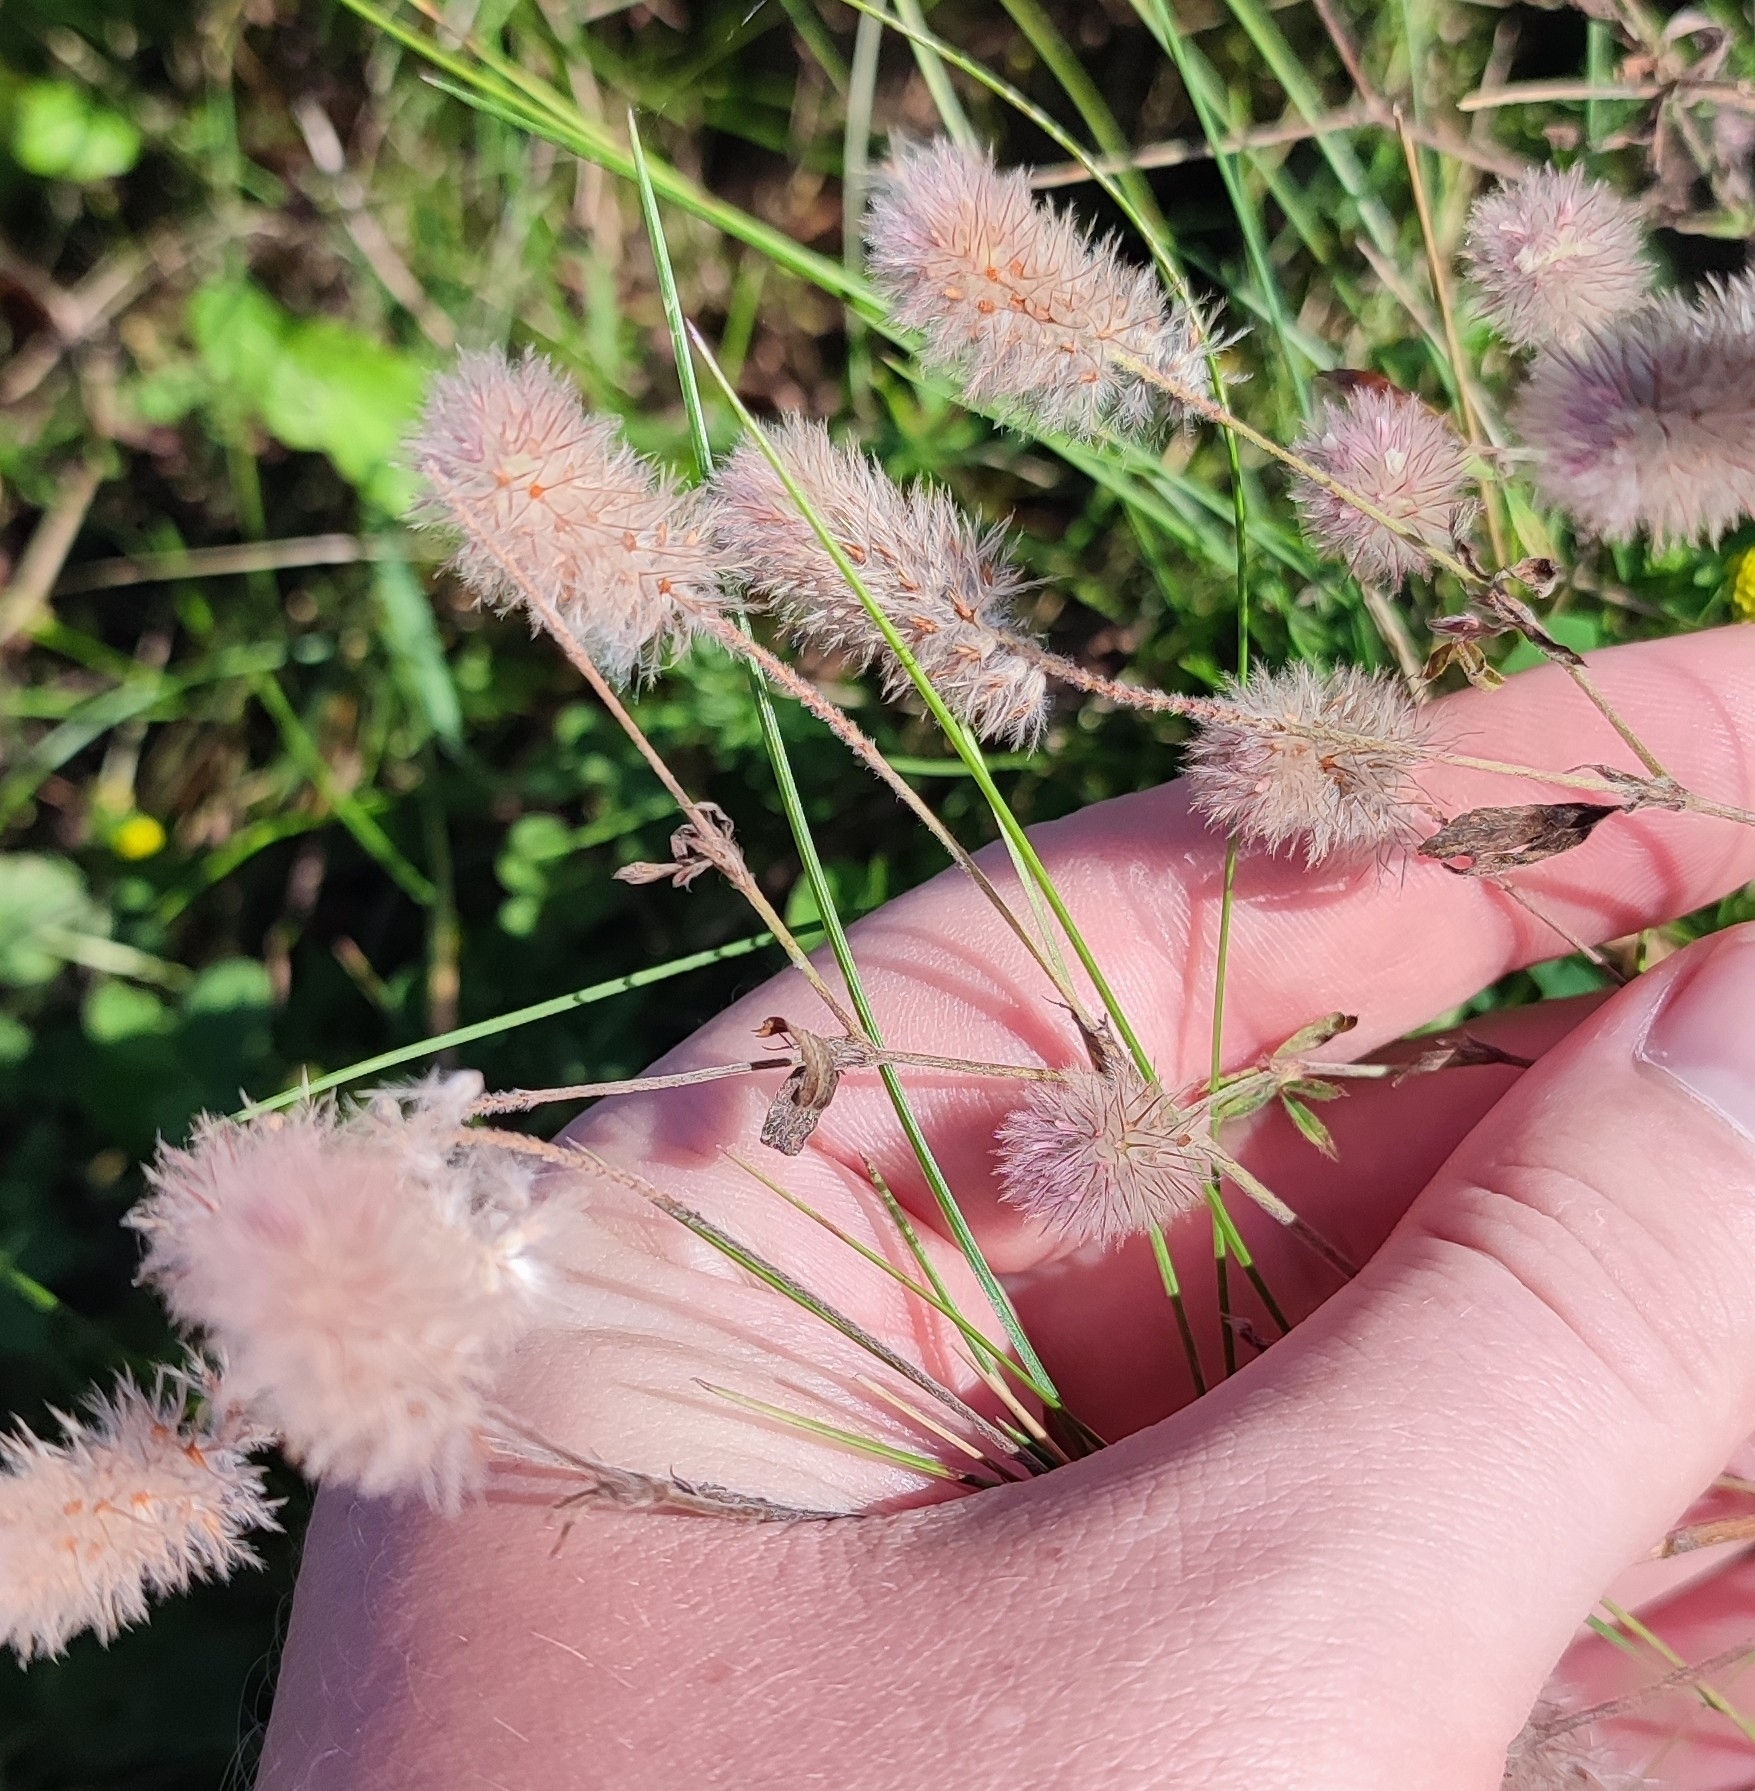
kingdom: Plantae
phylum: Tracheophyta
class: Magnoliopsida
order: Fabales
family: Fabaceae
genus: Trifolium
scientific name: Trifolium arvense
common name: Hare's-foot clover
